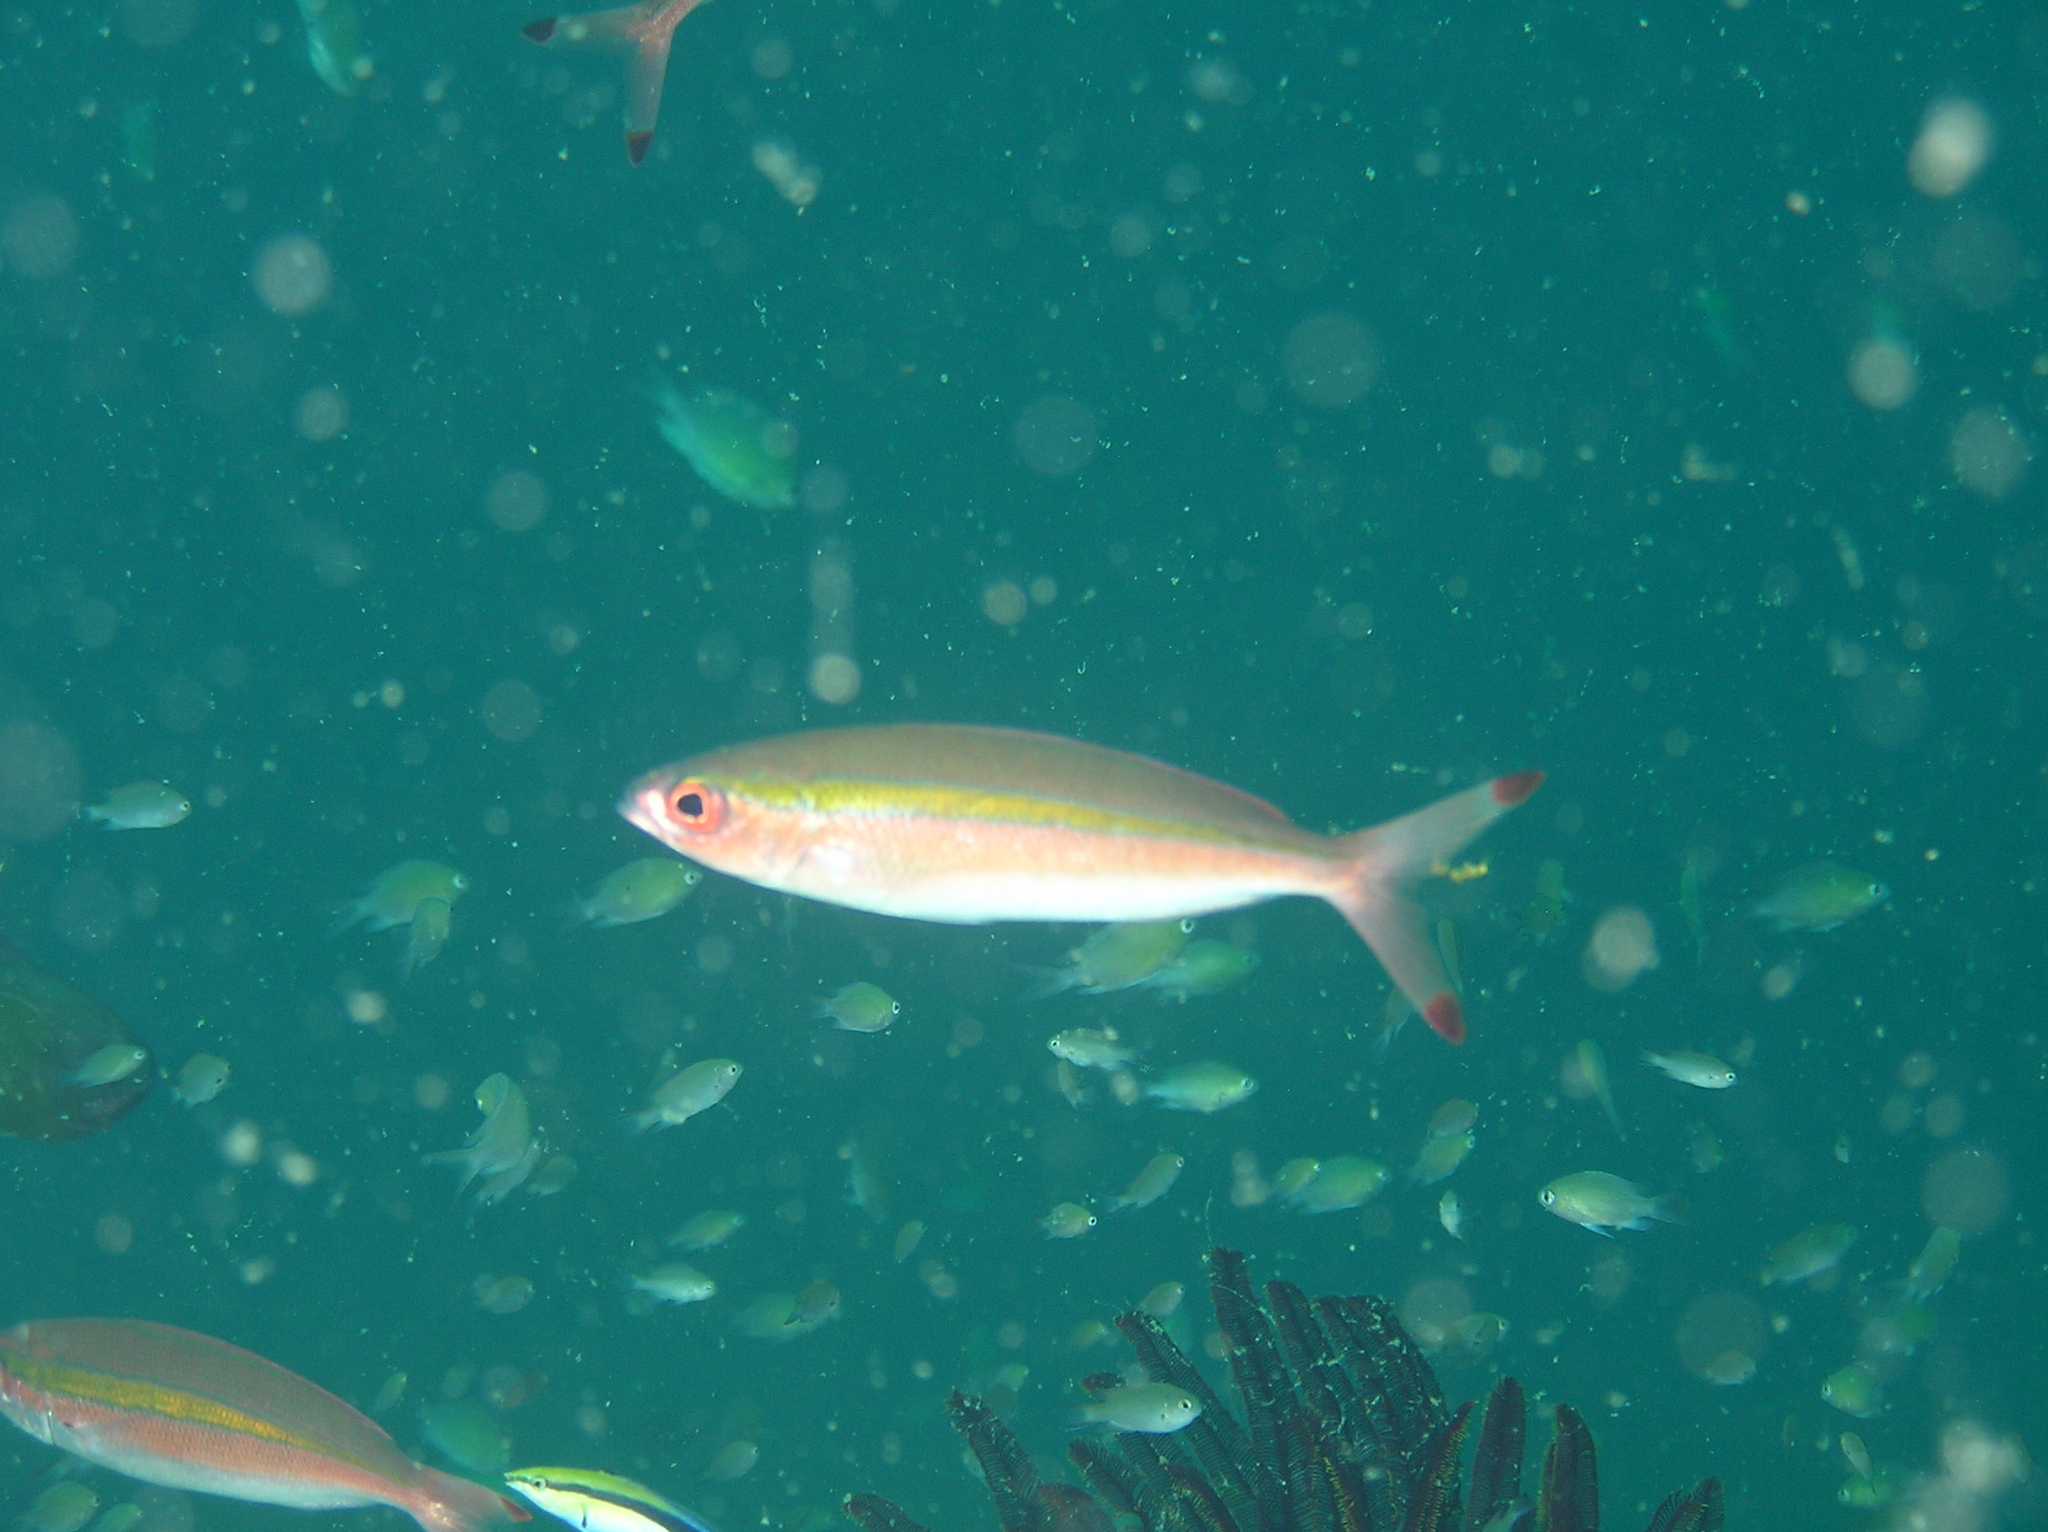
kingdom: Animalia
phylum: Chordata
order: Perciformes
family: Caesionidae
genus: Pterocaesio
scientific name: Pterocaesio chrysozona
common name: Goldband fusilier
